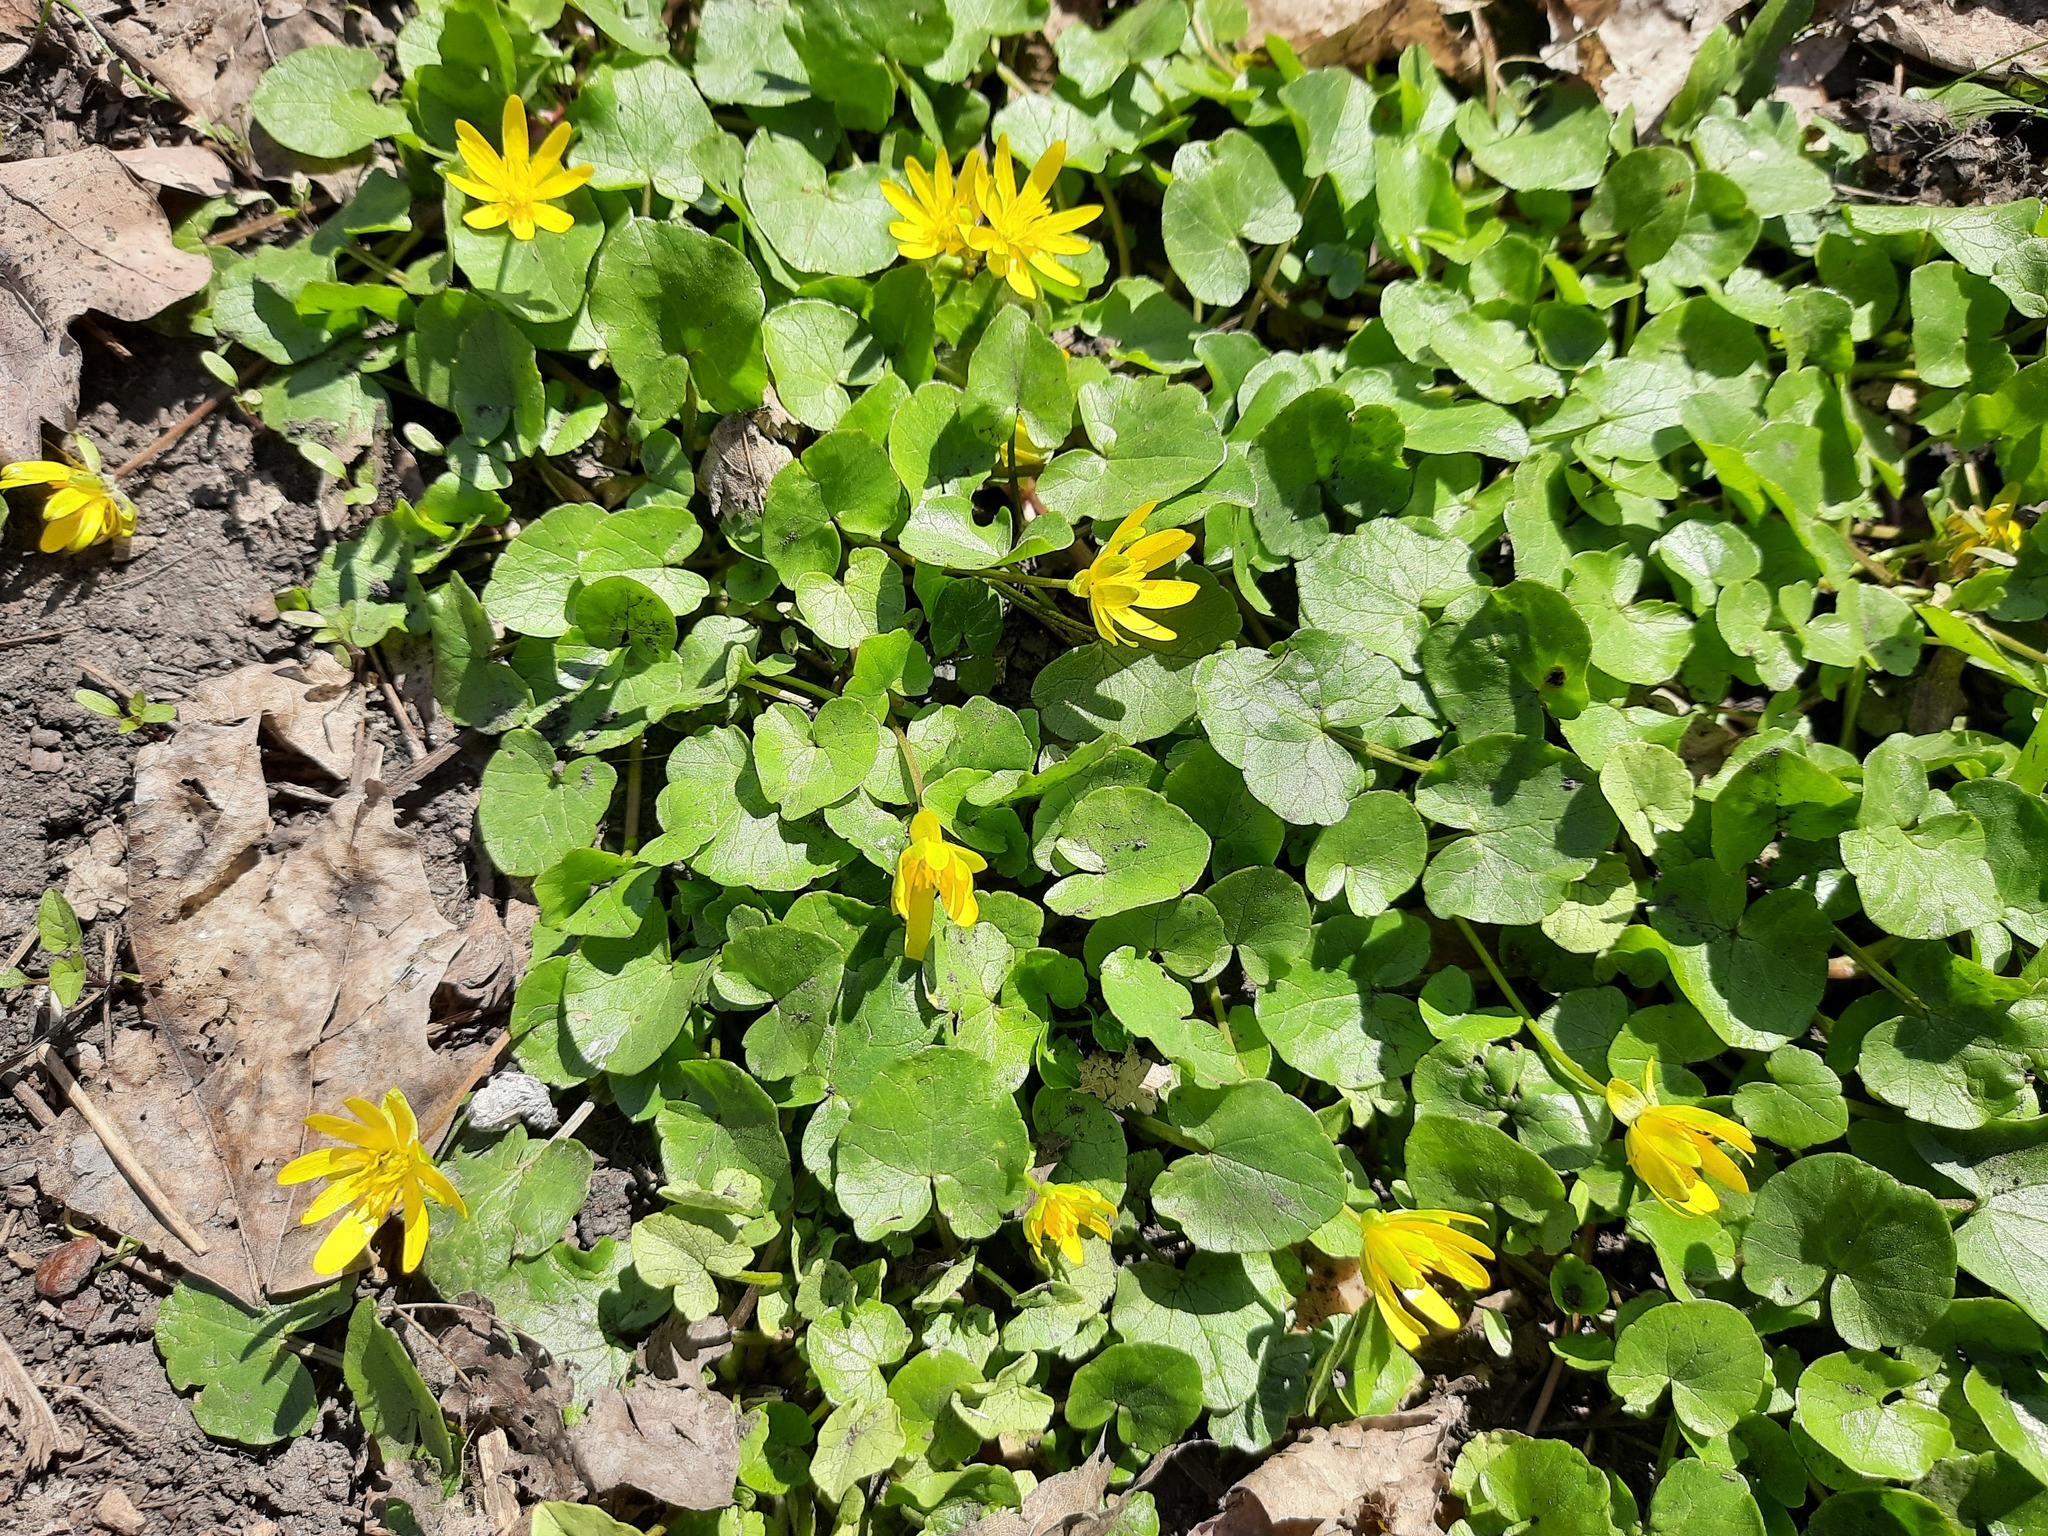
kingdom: Plantae
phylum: Tracheophyta
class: Magnoliopsida
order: Ranunculales
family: Ranunculaceae
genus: Ficaria
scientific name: Ficaria verna
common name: Lesser celandine
